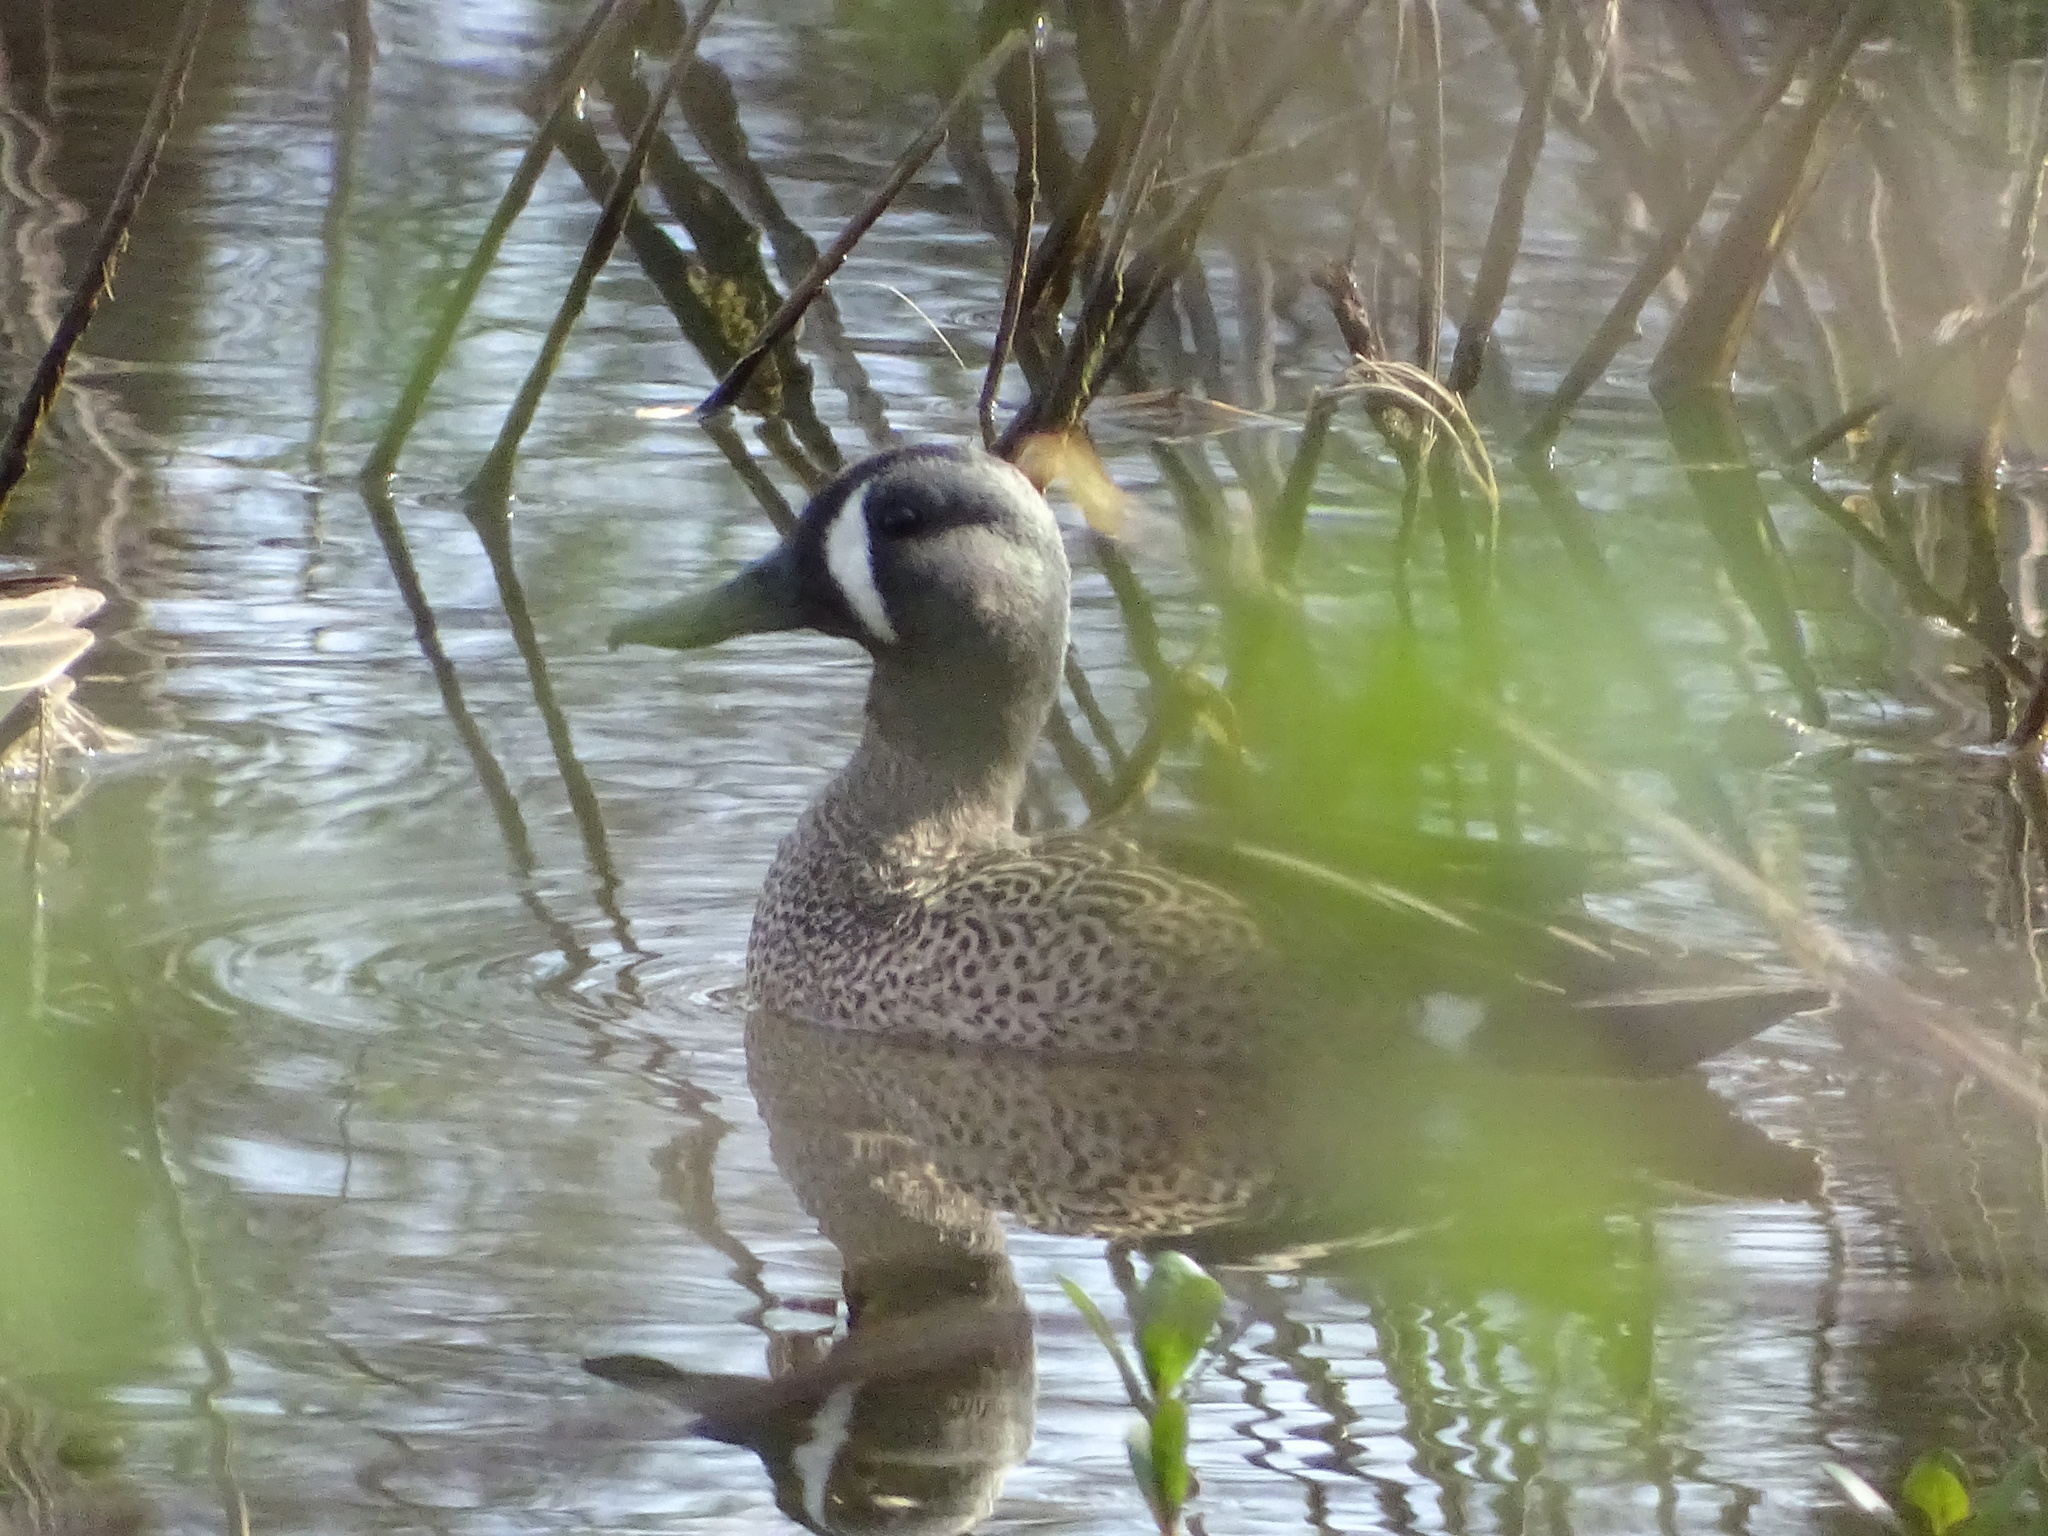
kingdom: Animalia
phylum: Chordata
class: Aves
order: Anseriformes
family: Anatidae
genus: Spatula
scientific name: Spatula discors
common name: Blue-winged teal
